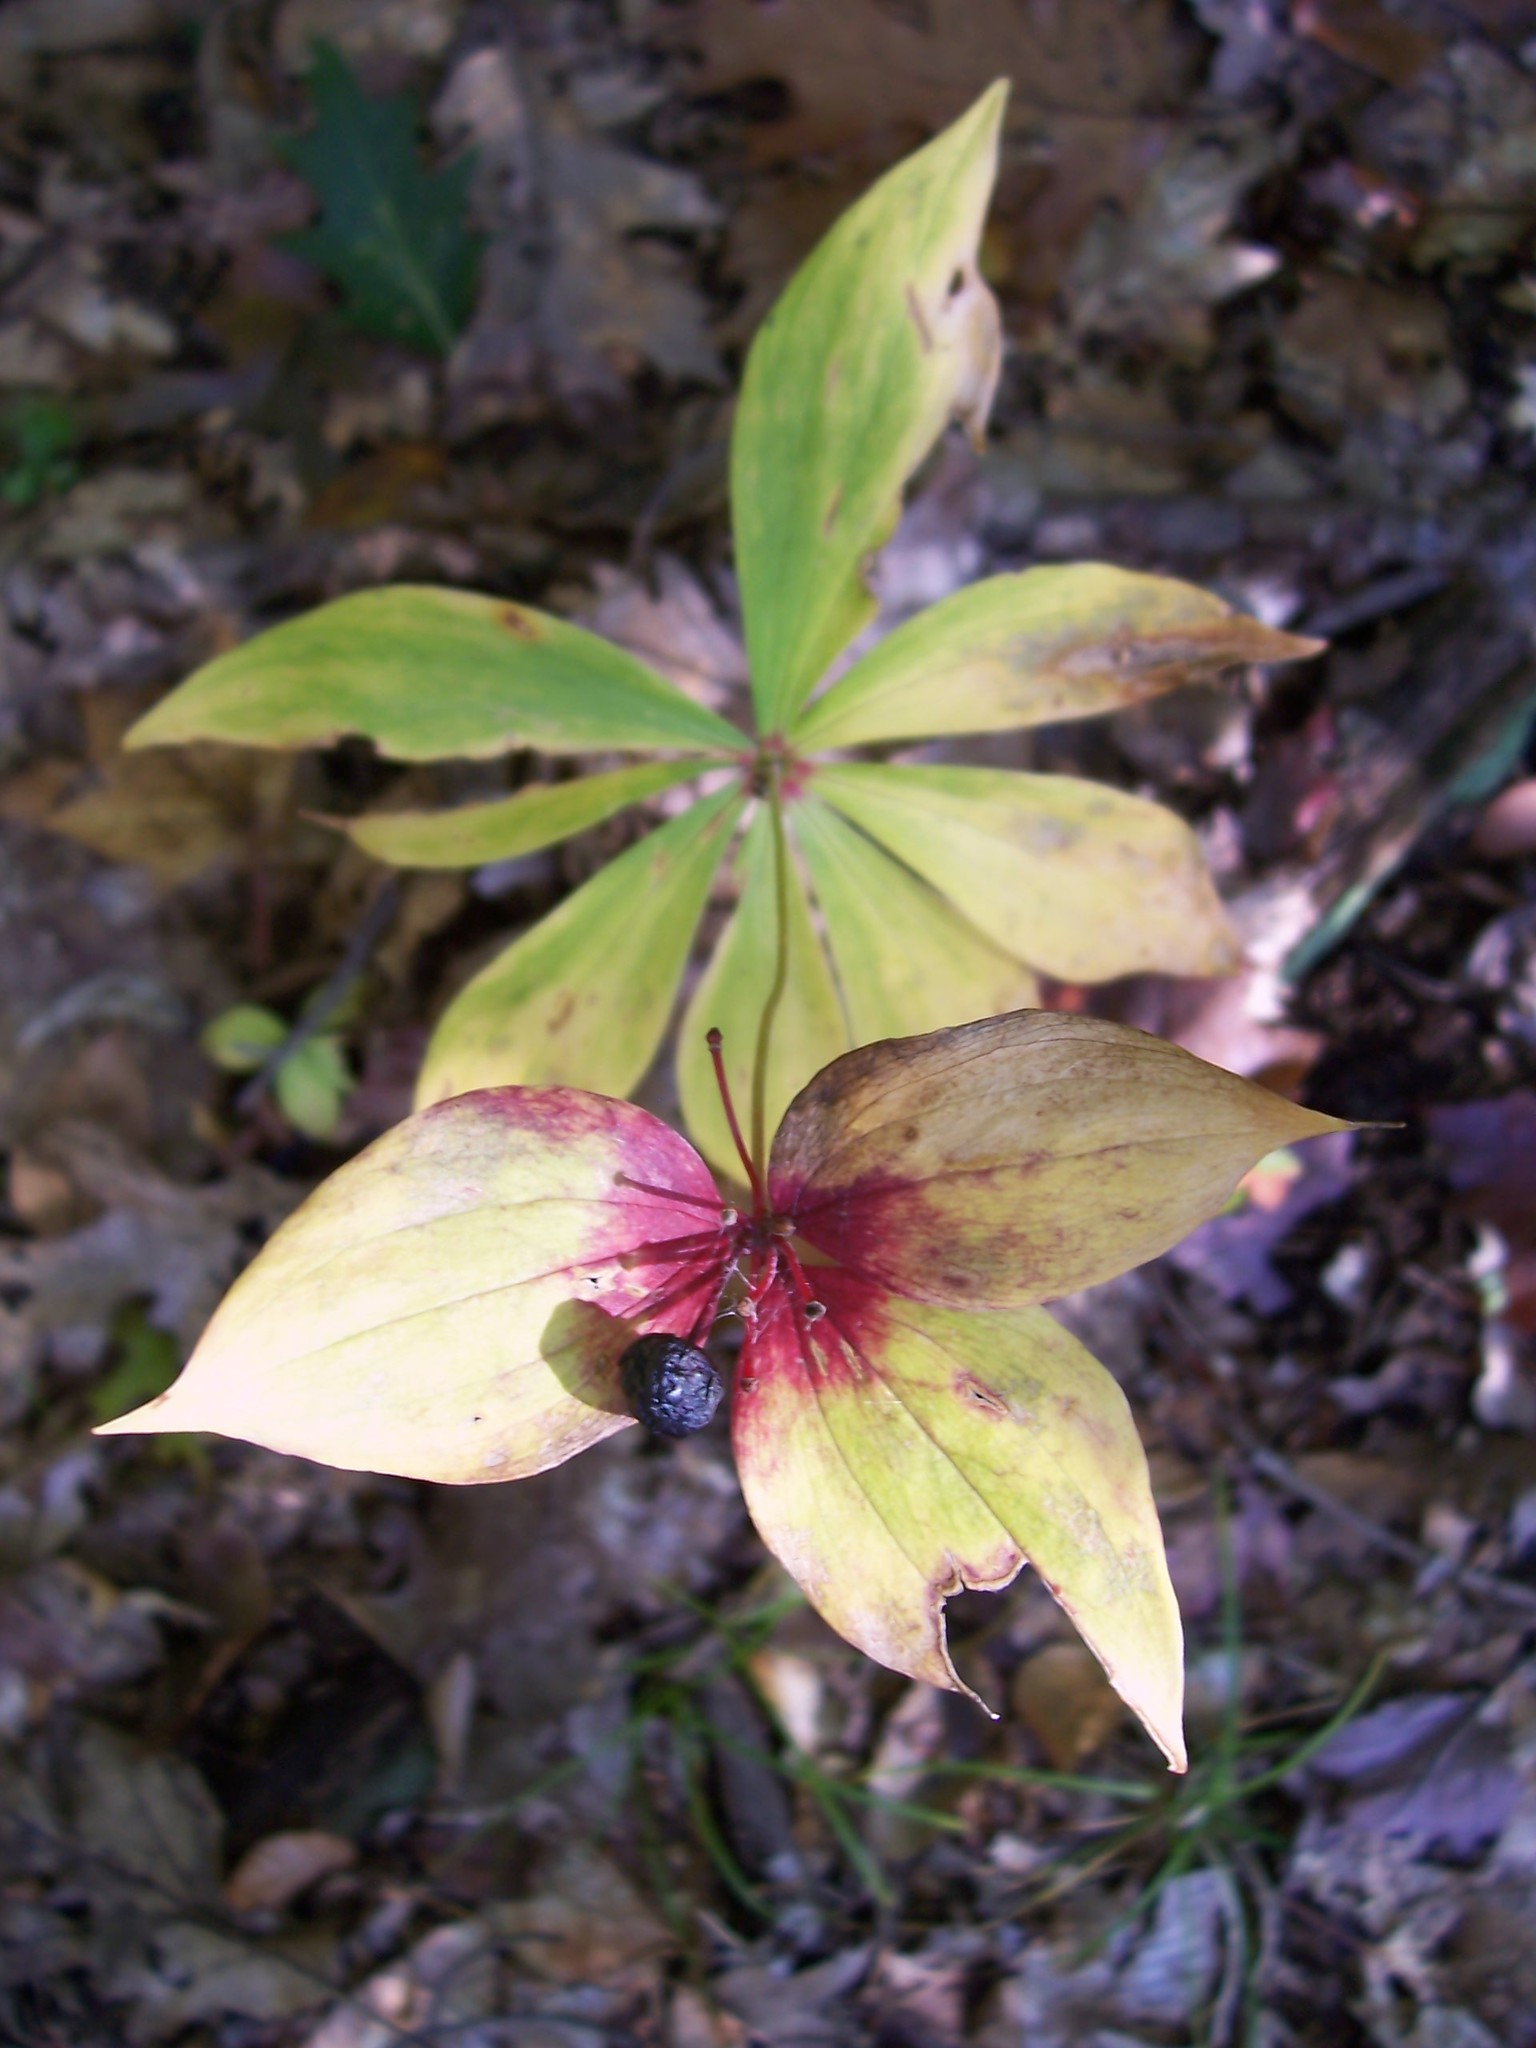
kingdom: Plantae
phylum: Tracheophyta
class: Liliopsida
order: Liliales
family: Liliaceae
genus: Medeola
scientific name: Medeola virginiana
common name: Indian cucumber-root
